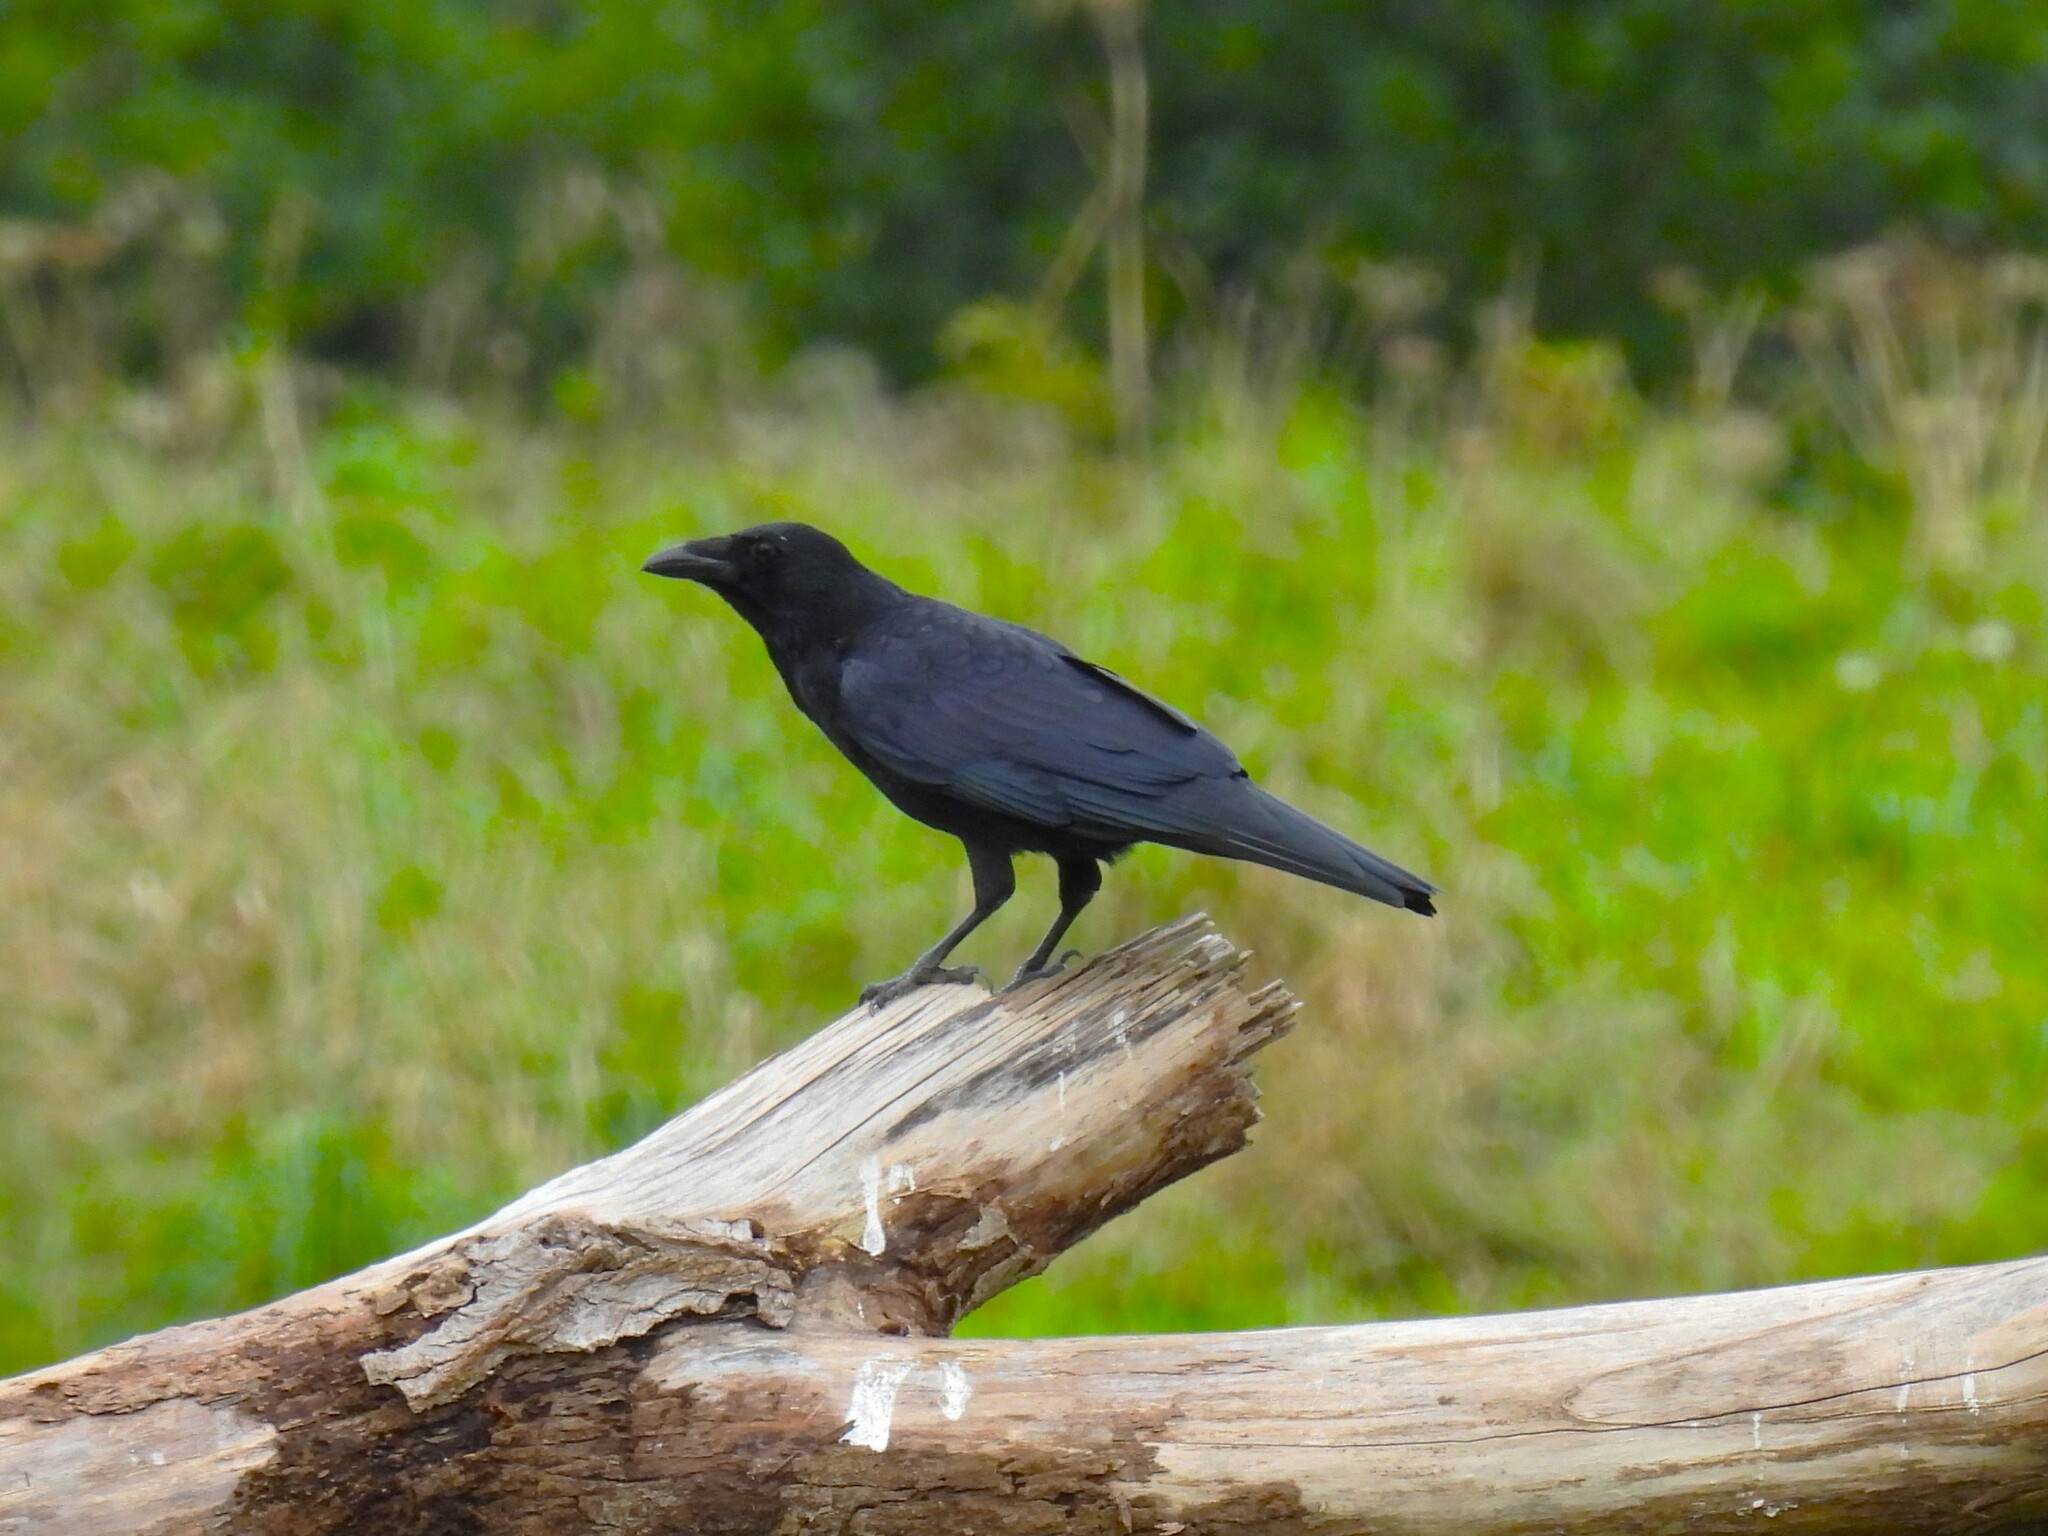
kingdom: Animalia
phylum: Chordata
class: Aves
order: Passeriformes
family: Corvidae
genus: Corvus
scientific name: Corvus corone
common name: Carrion crow
